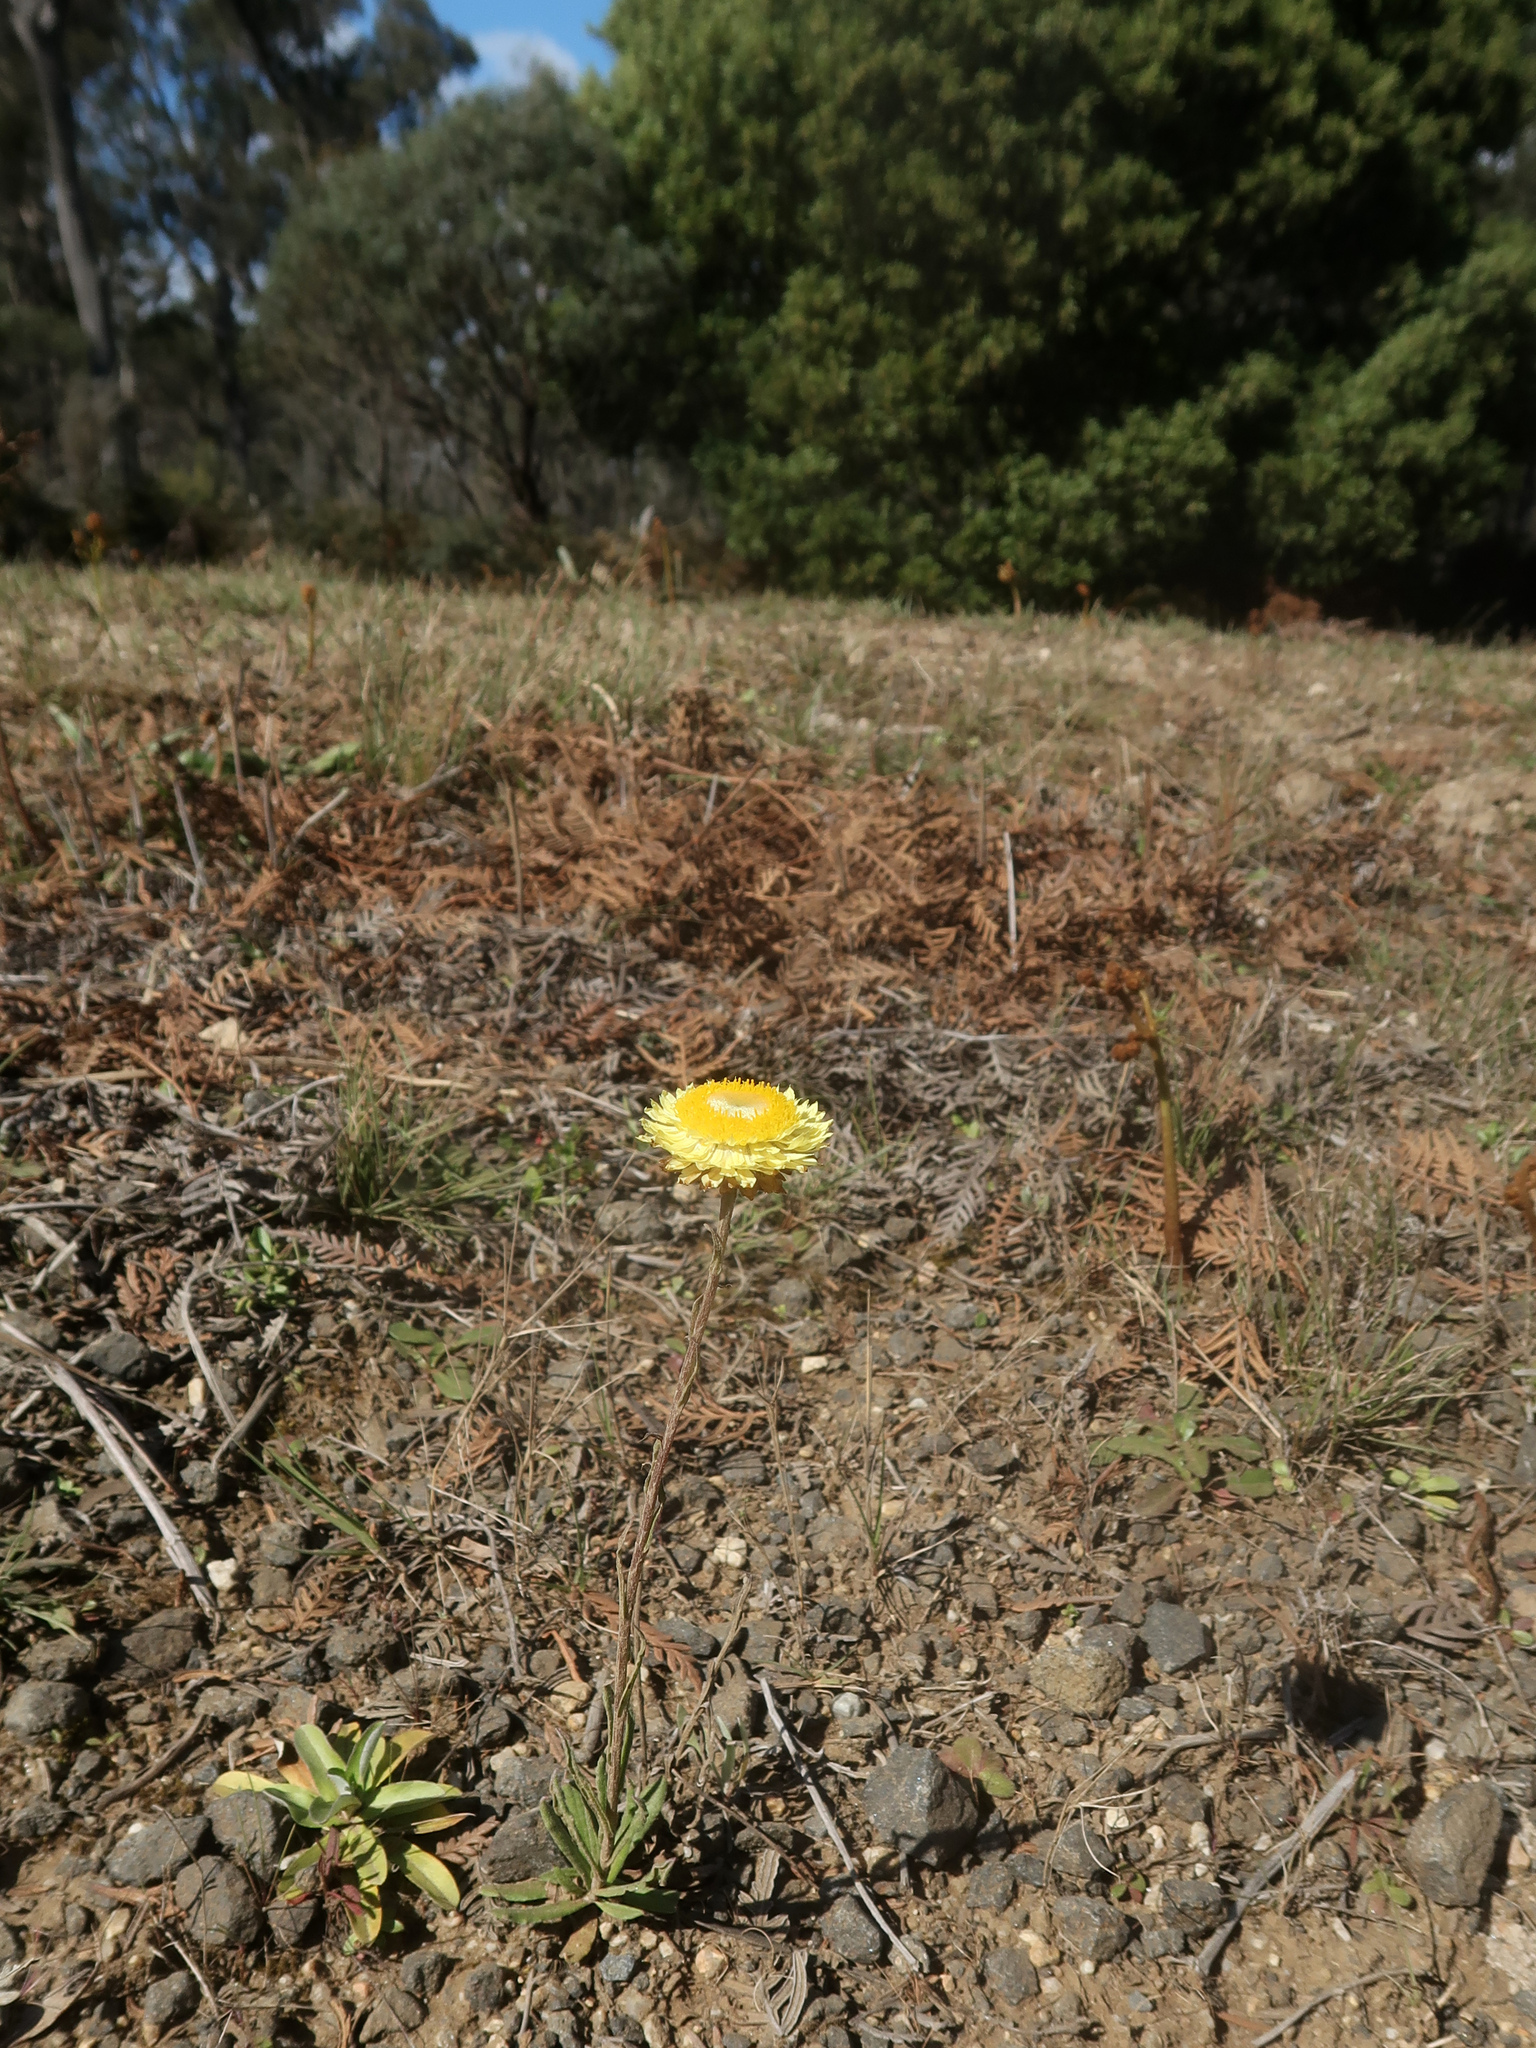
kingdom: Plantae
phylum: Tracheophyta
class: Magnoliopsida
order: Asterales
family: Asteraceae
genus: Coronidium
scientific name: Coronidium scorpioides
